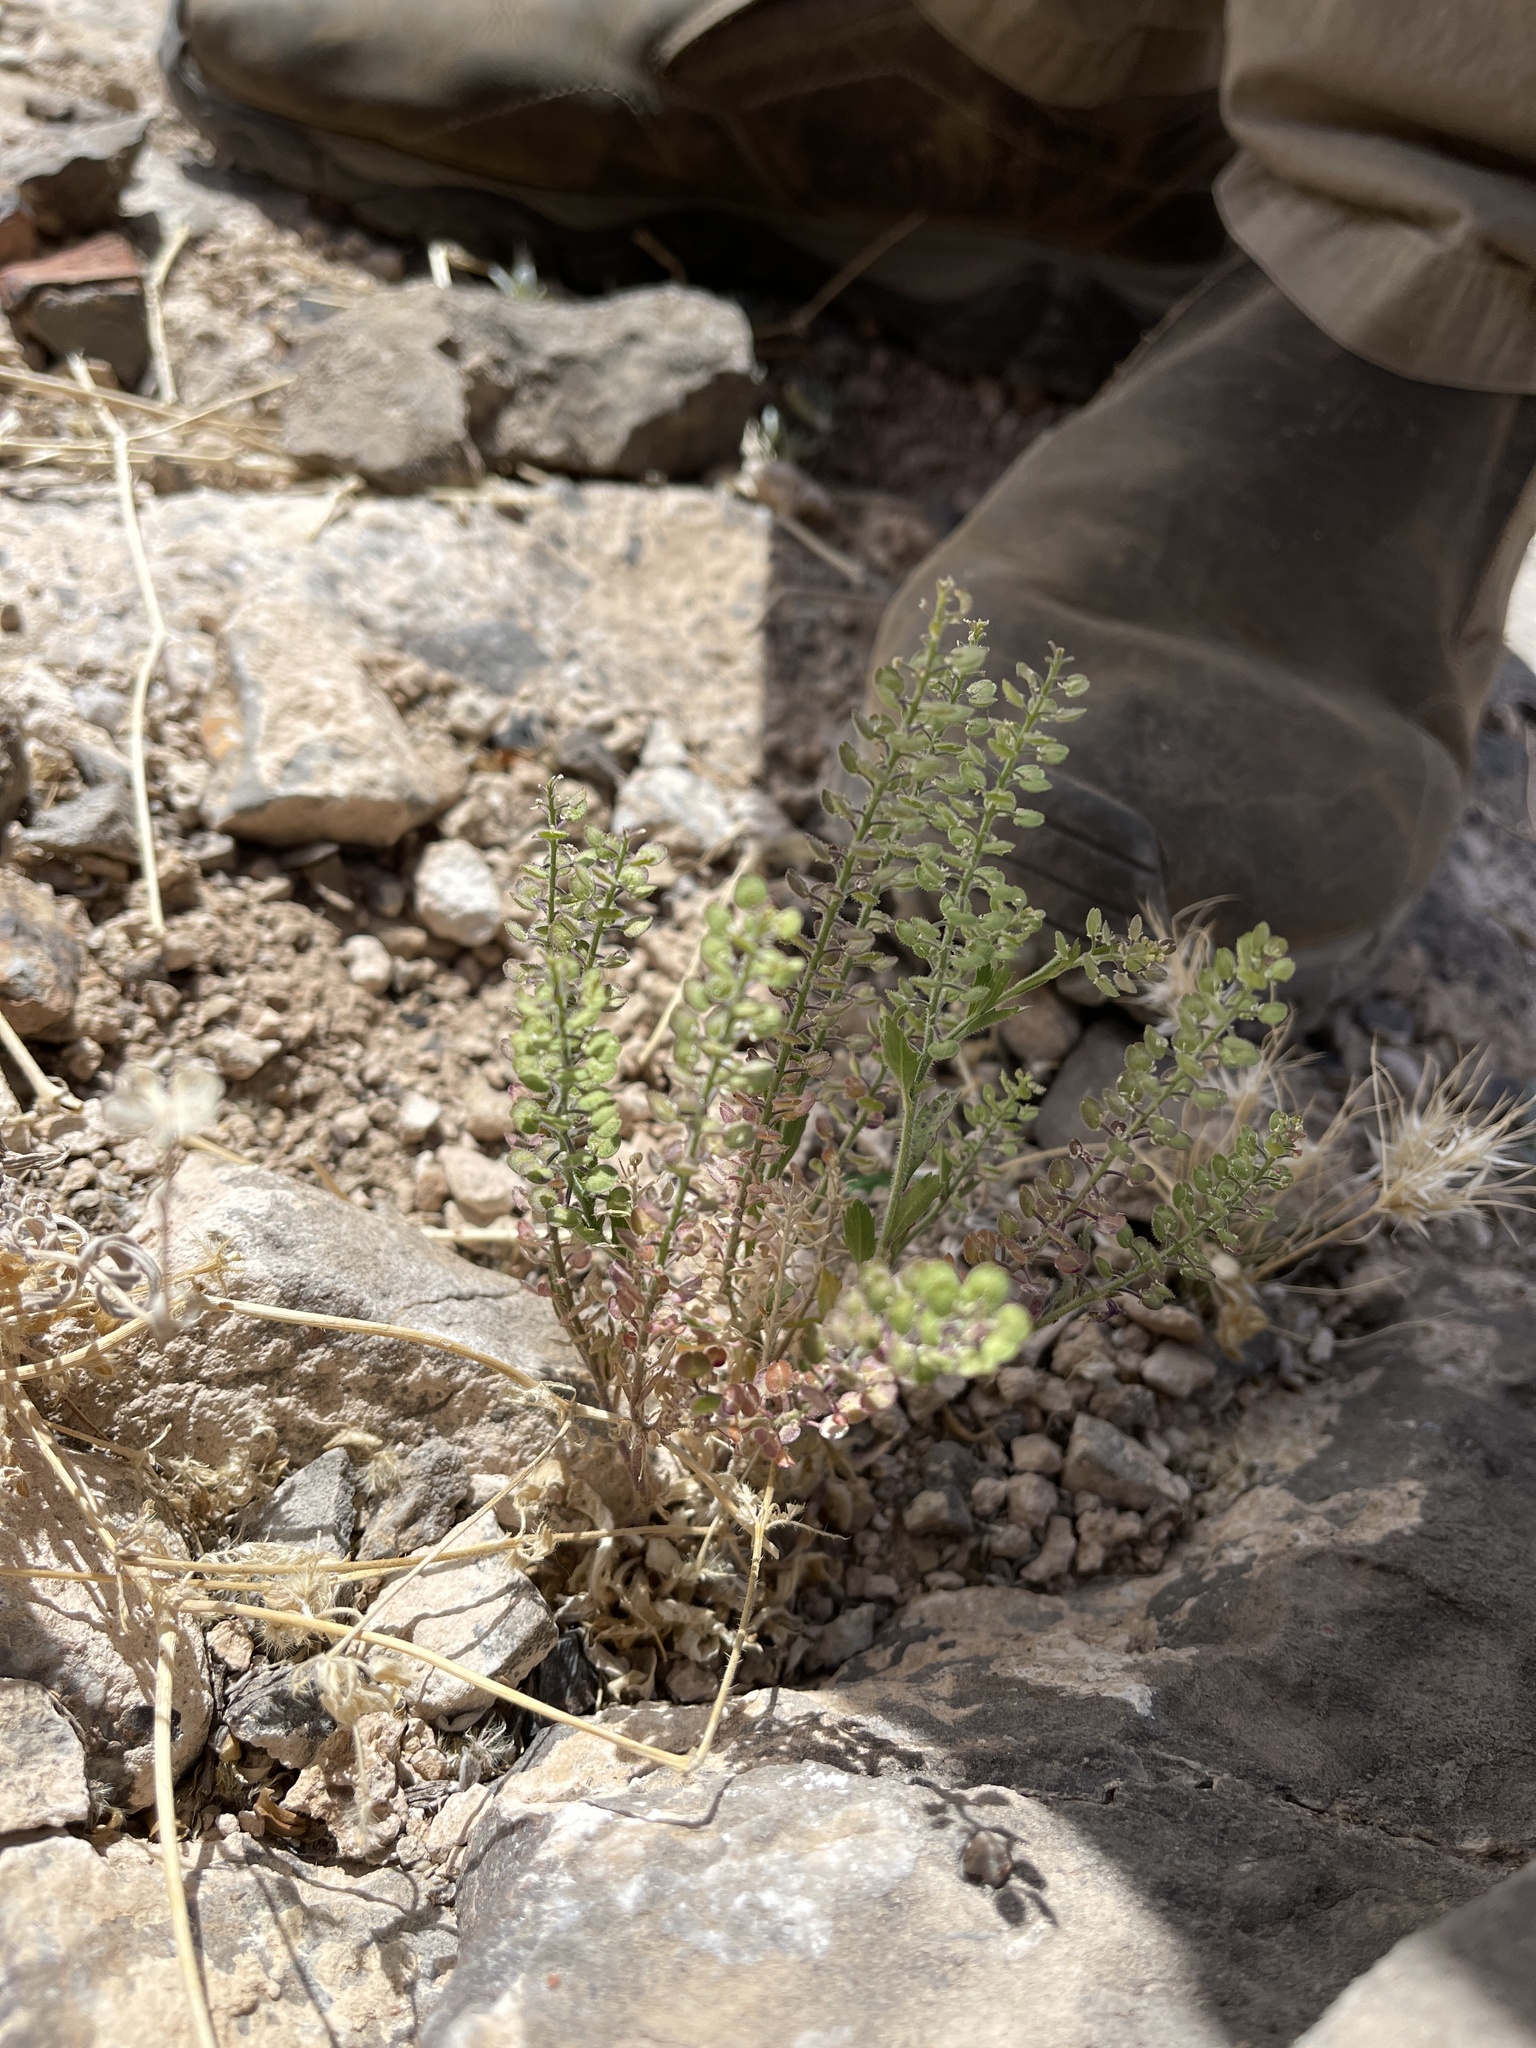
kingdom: Plantae
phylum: Tracheophyta
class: Magnoliopsida
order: Brassicales
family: Brassicaceae
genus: Lepidium
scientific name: Lepidium lasiocarpum
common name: Hairy-pod pepperwort
